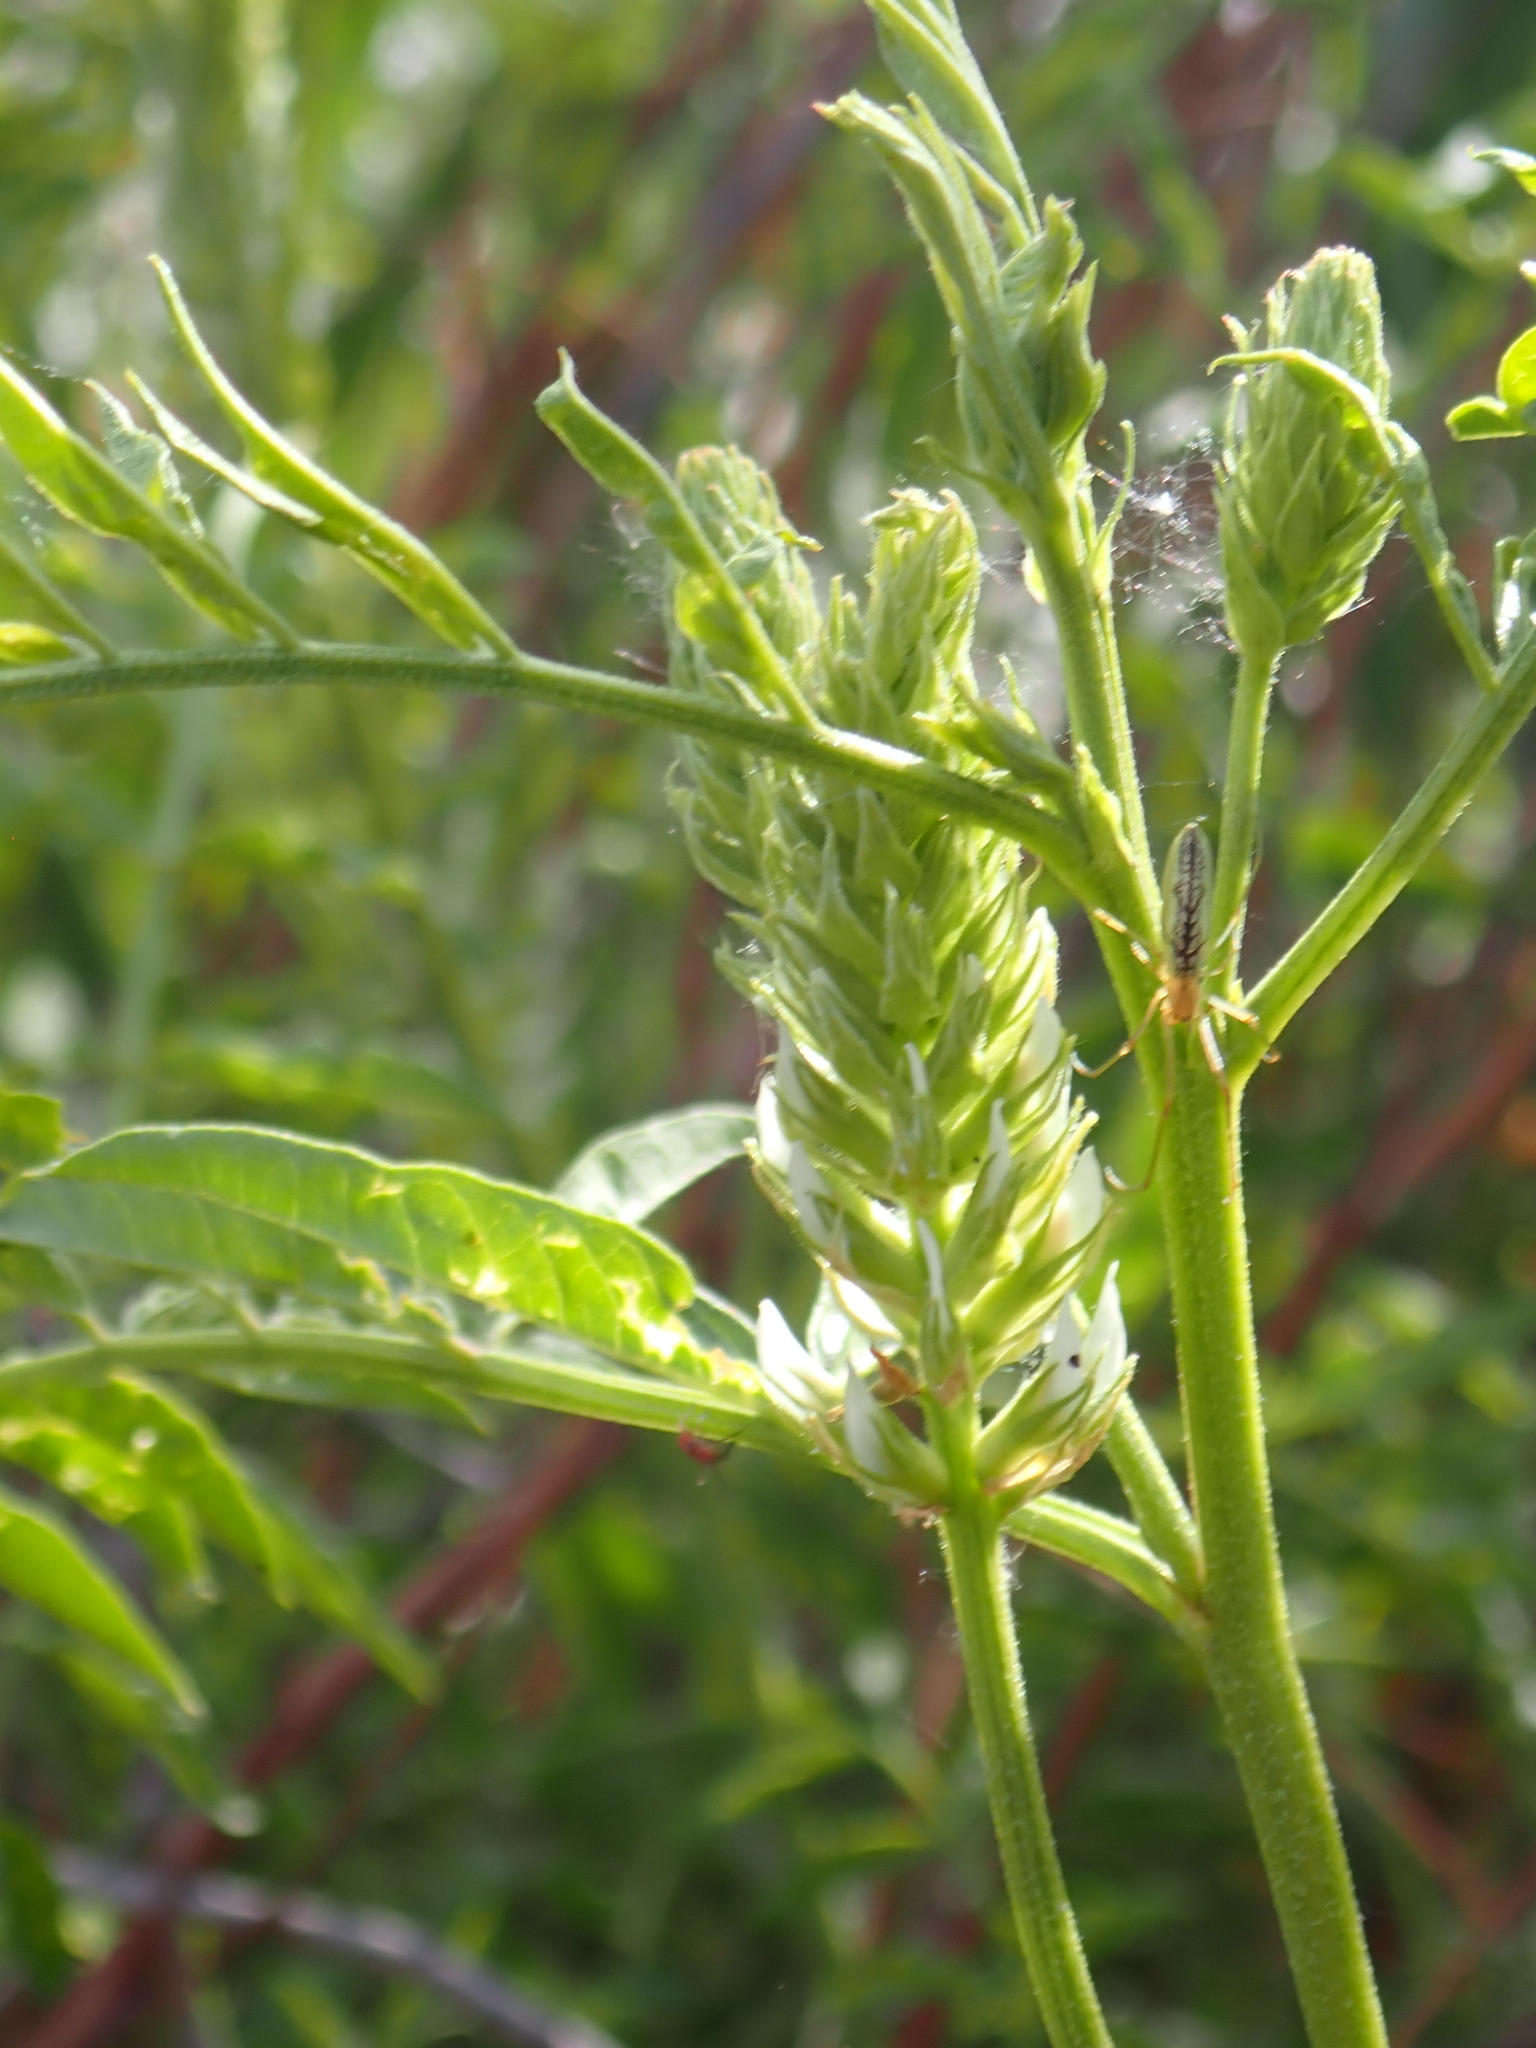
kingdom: Plantae
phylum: Tracheophyta
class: Magnoliopsida
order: Fabales
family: Fabaceae
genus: Glycyrrhiza
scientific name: Glycyrrhiza lepidota
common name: American liquorice
